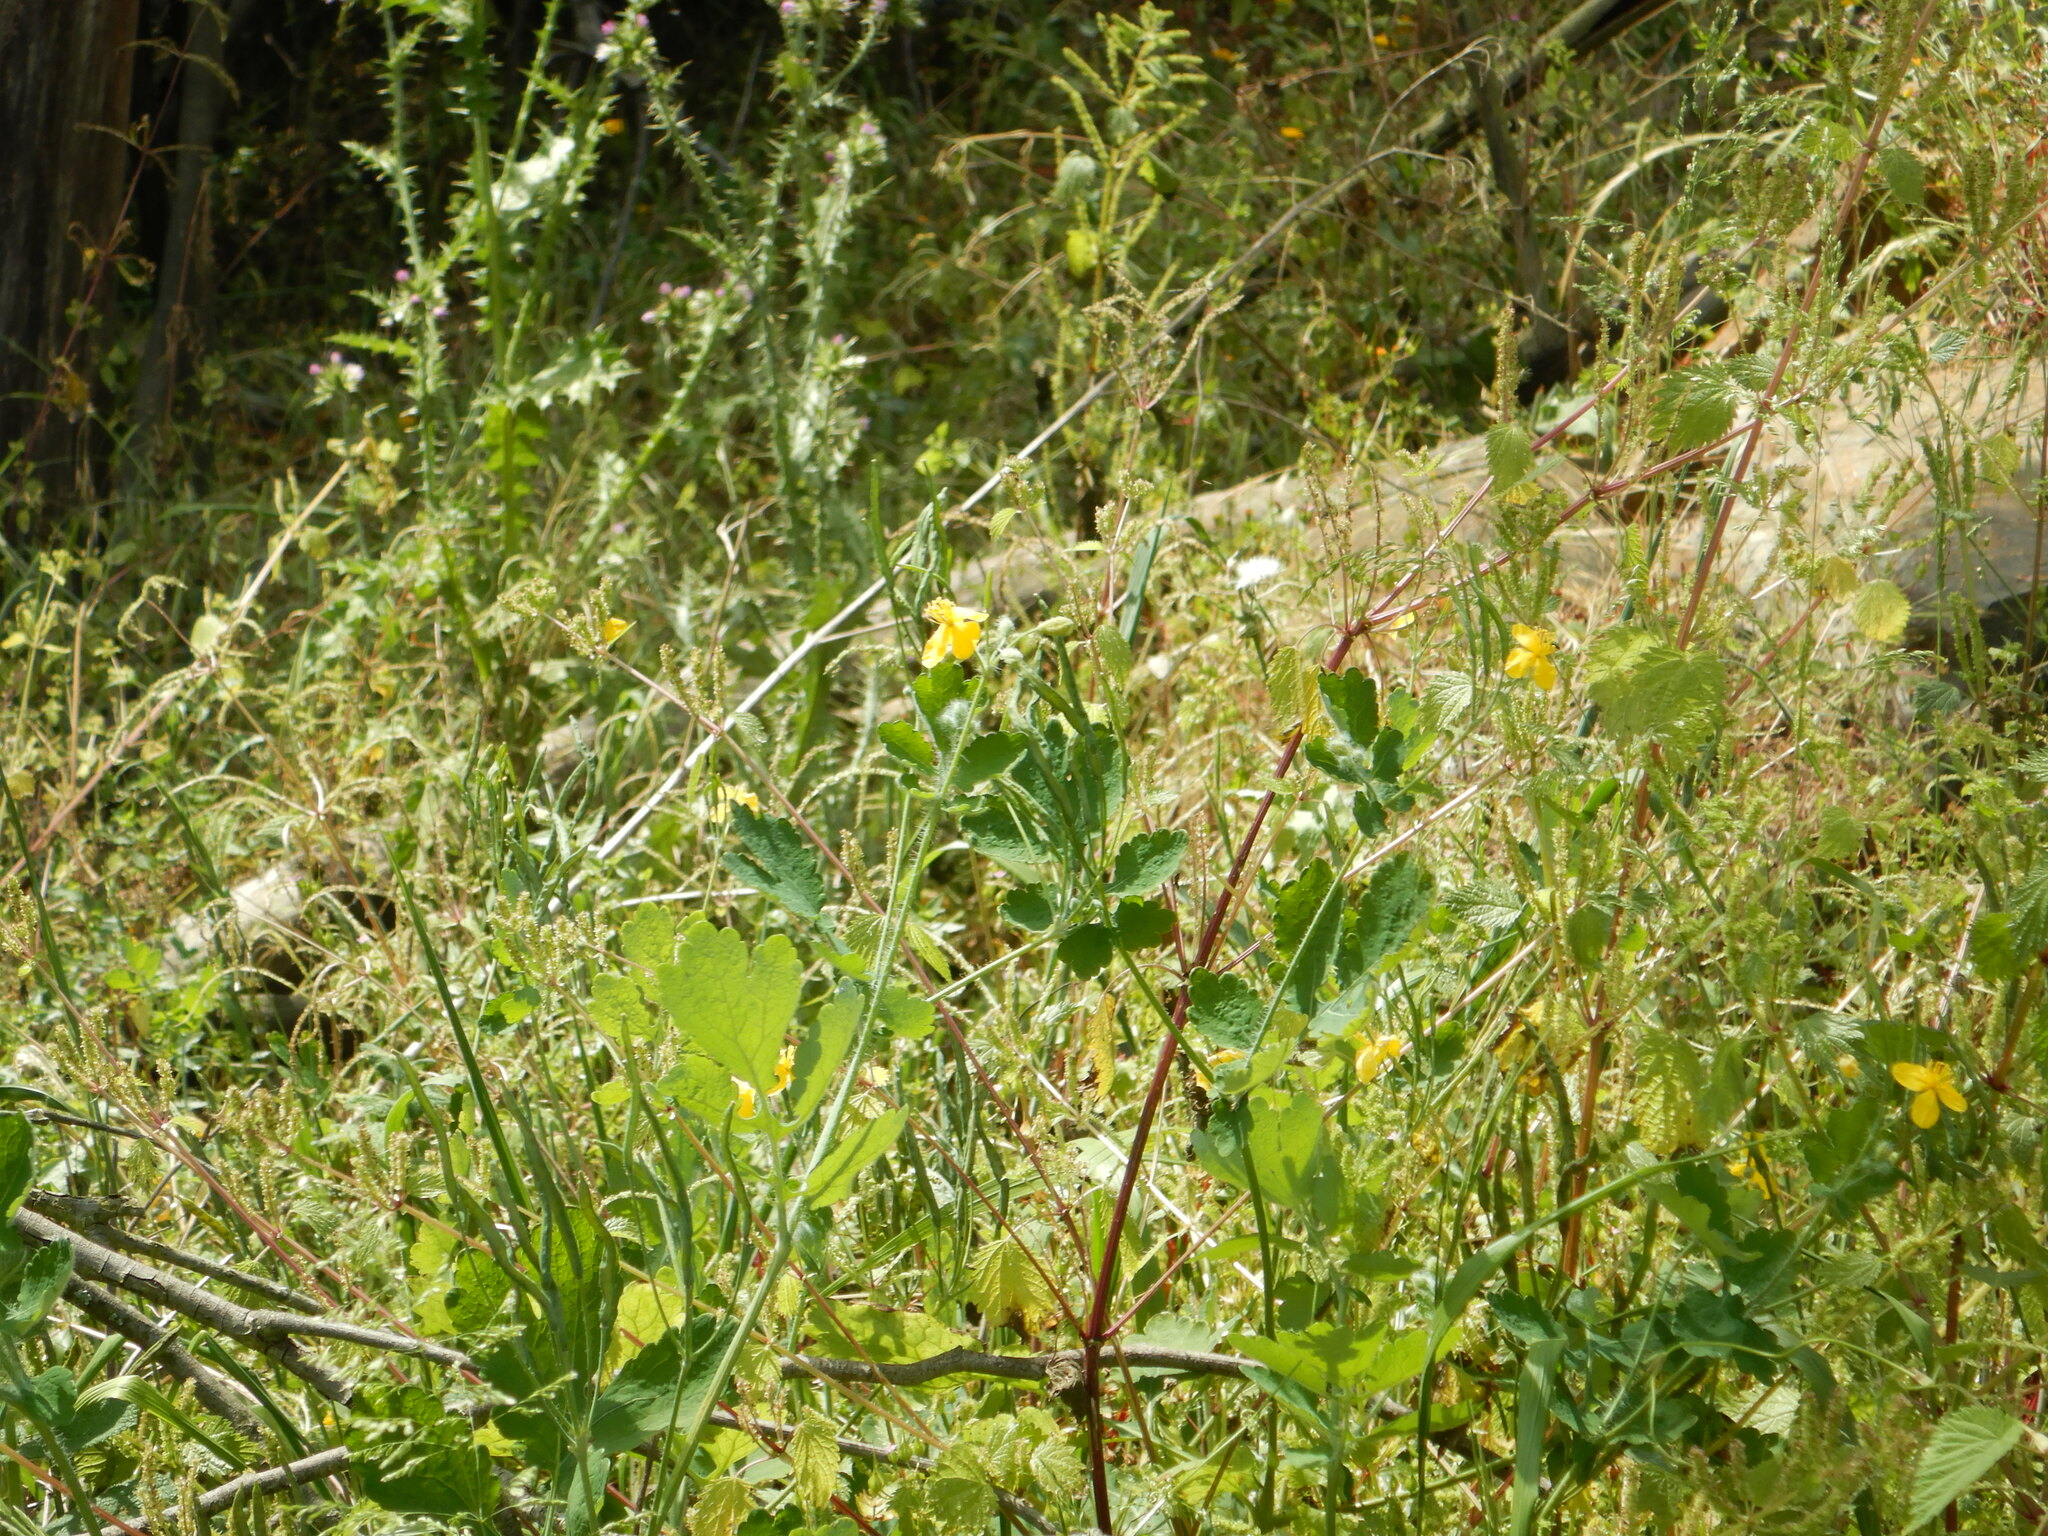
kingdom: Plantae
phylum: Tracheophyta
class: Magnoliopsida
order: Ranunculales
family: Papaveraceae
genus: Chelidonium
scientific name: Chelidonium majus
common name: Greater celandine
